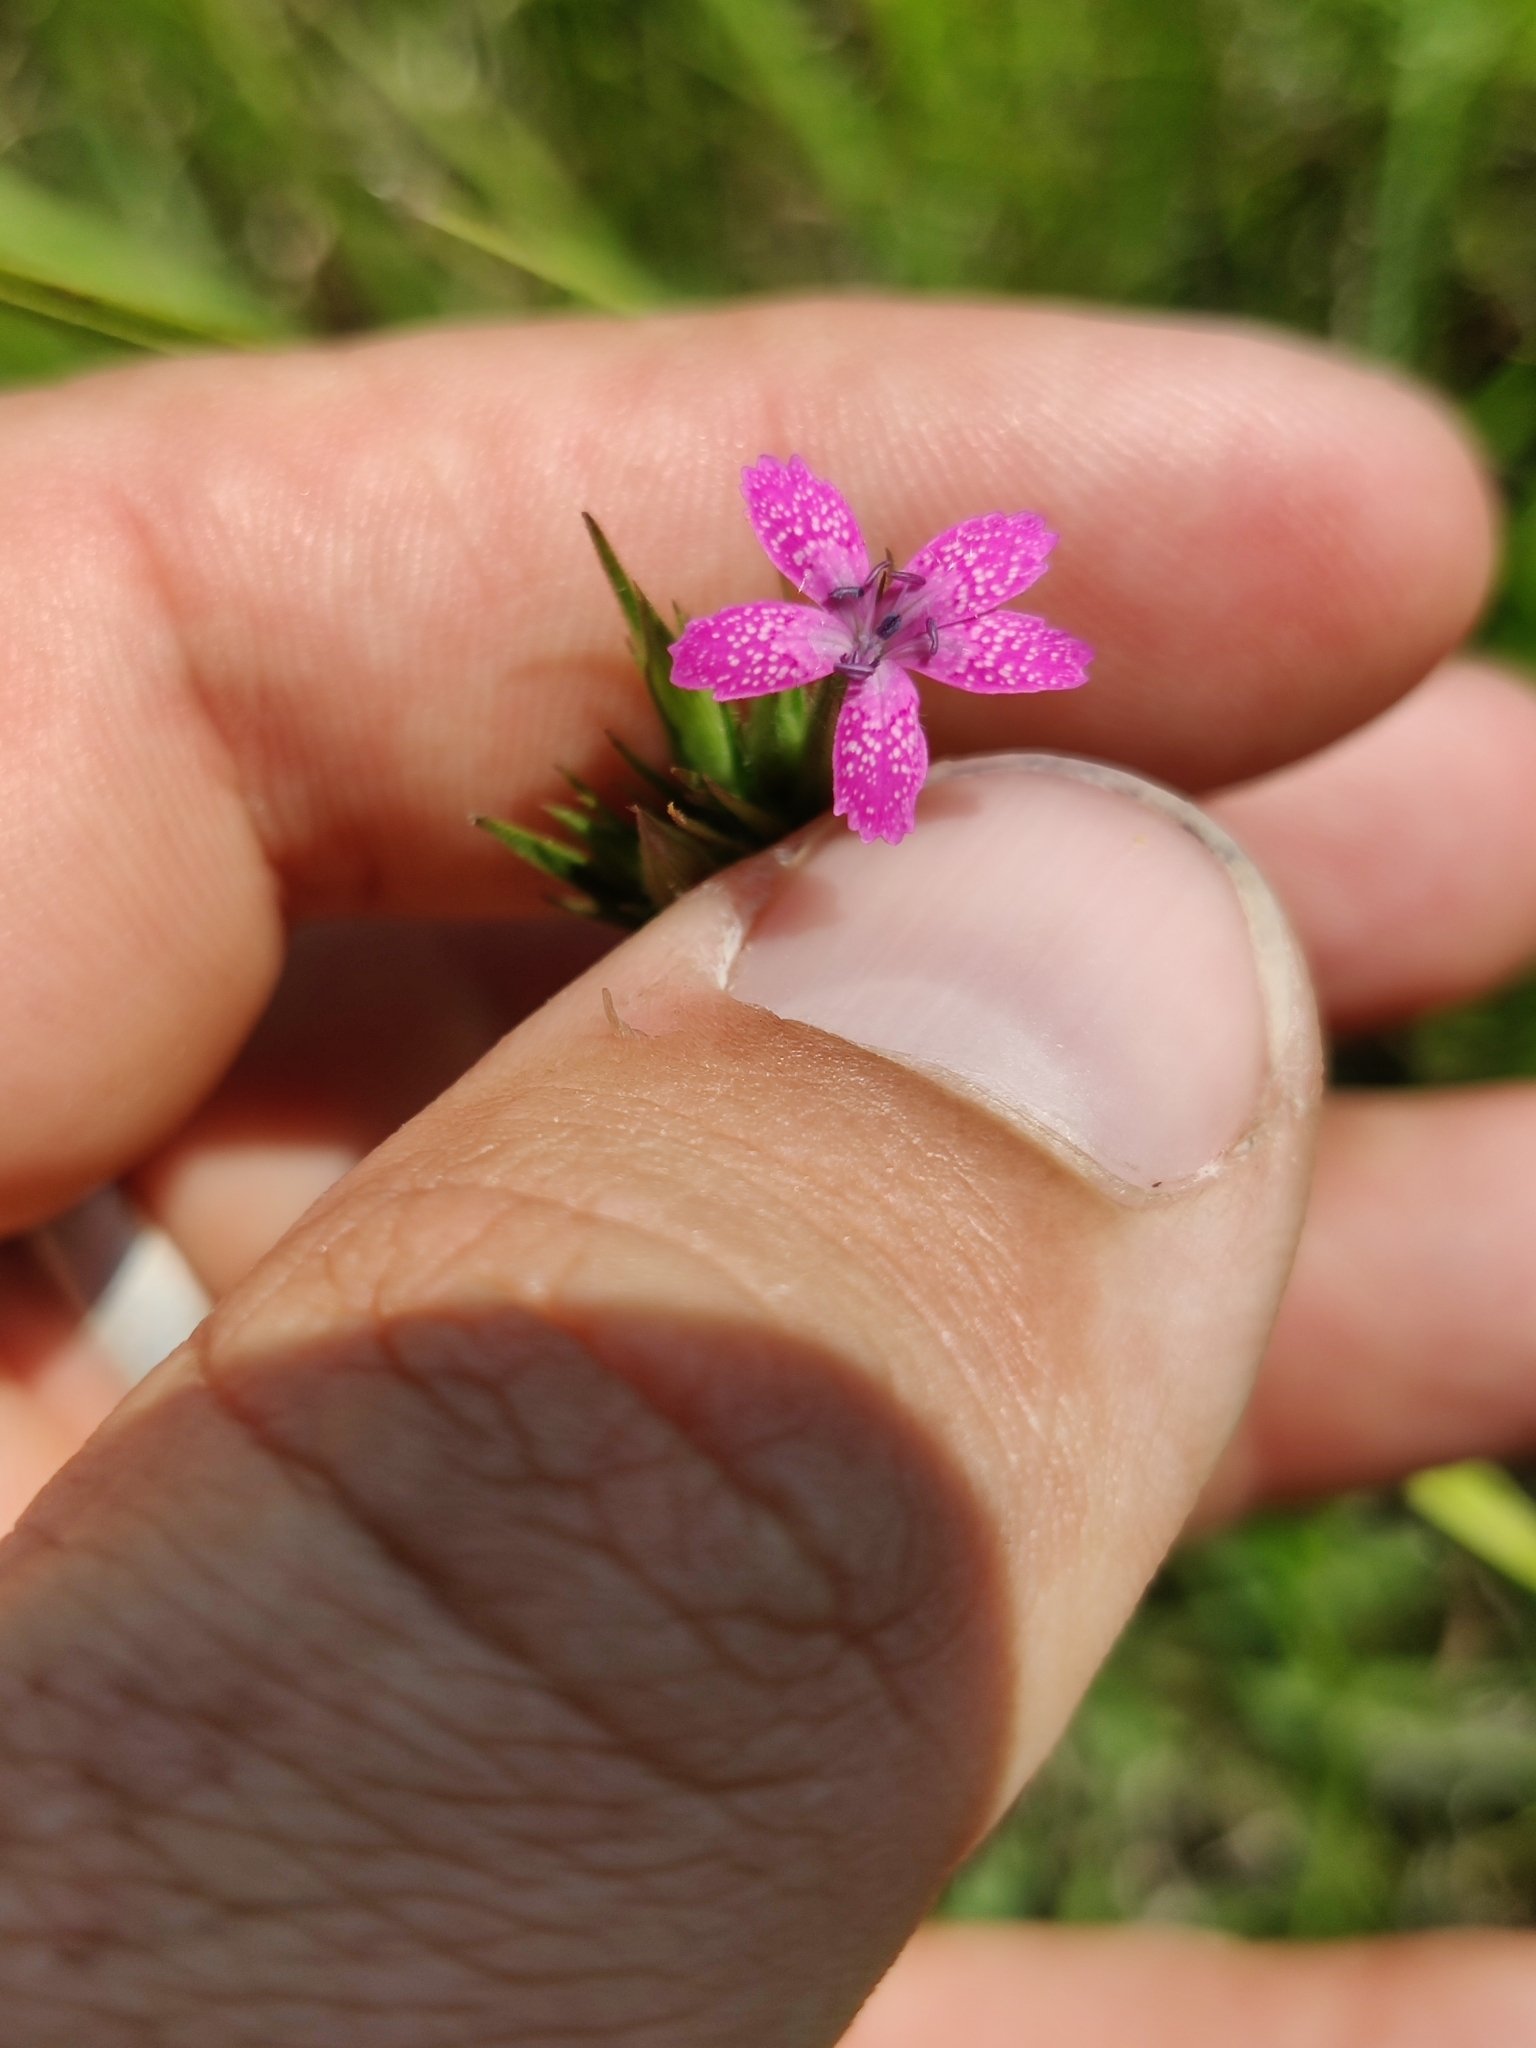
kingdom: Plantae
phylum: Tracheophyta
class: Magnoliopsida
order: Caryophyllales
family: Caryophyllaceae
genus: Dianthus
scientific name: Dianthus armeria
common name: Deptford pink
